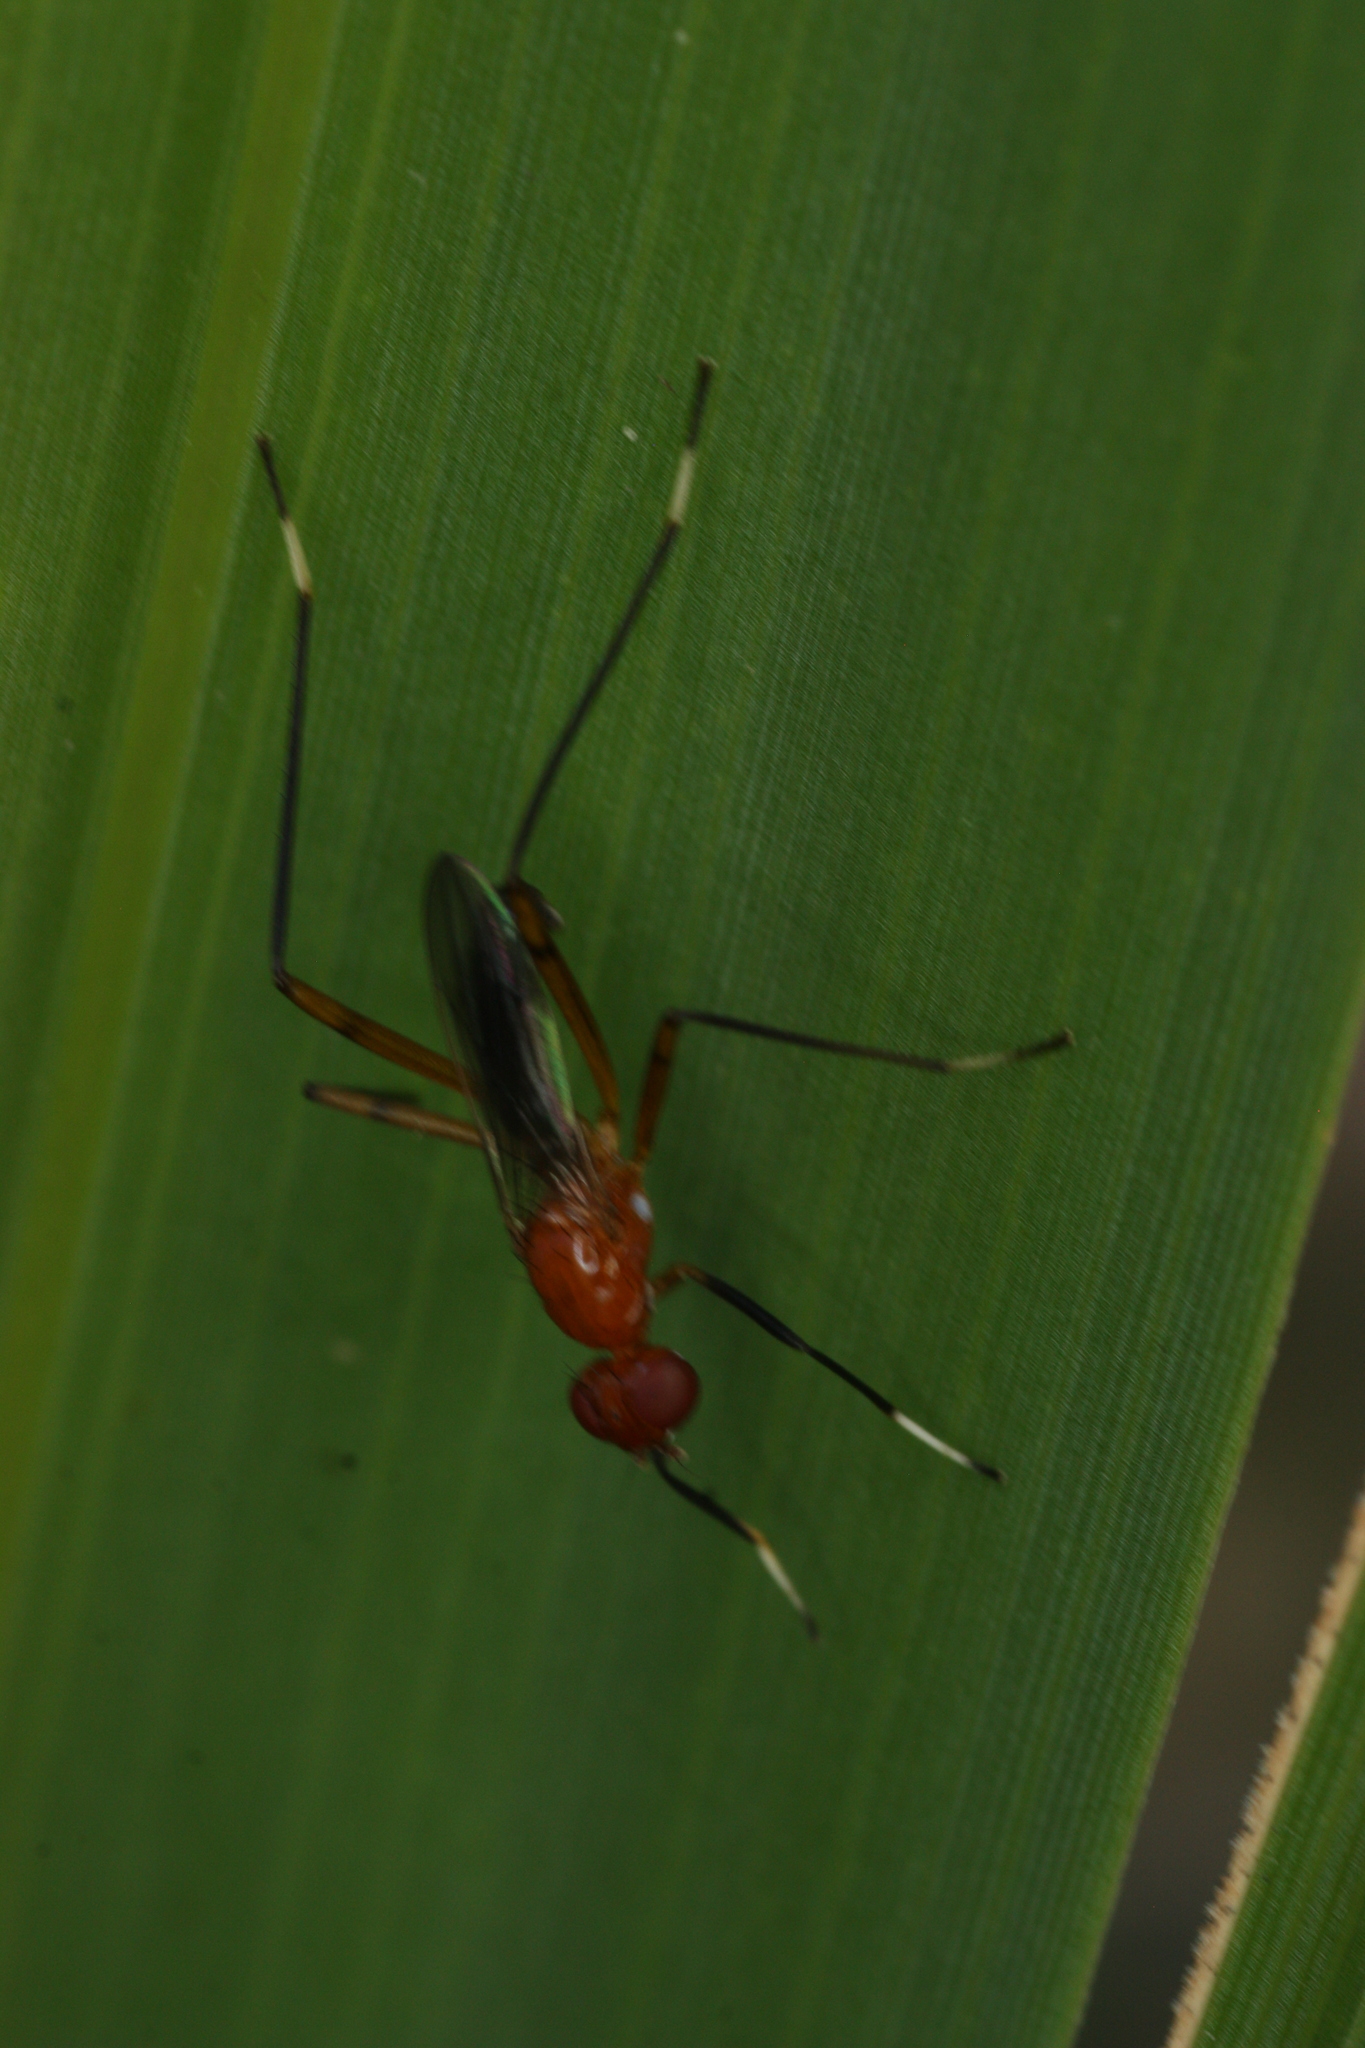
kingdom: Animalia
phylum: Arthropoda
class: Insecta
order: Diptera
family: Micropezidae
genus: Grallipeza
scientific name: Grallipeza nebulosa
